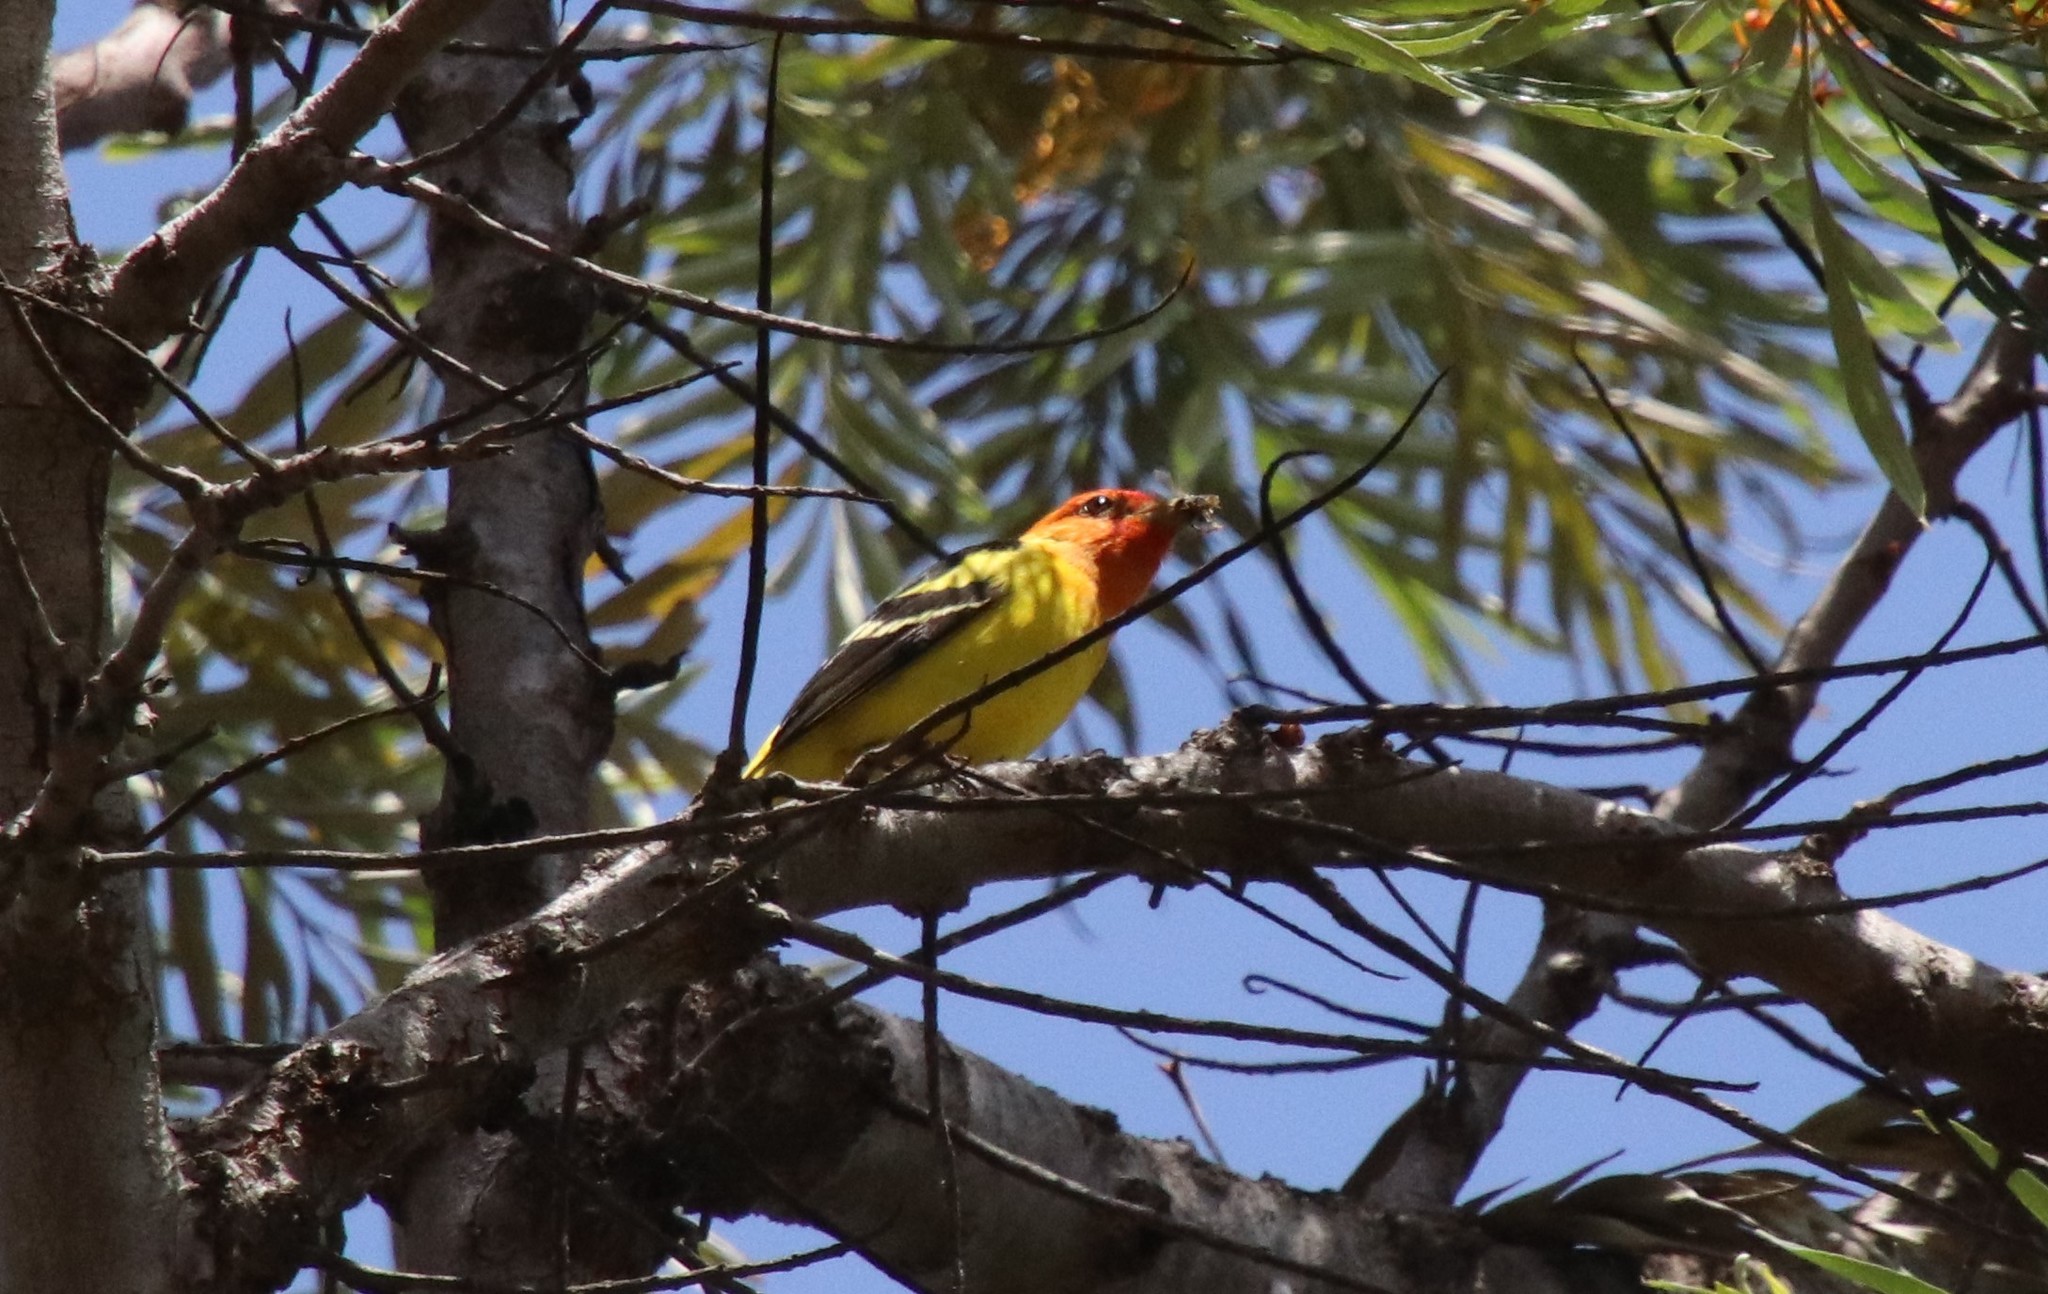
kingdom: Animalia
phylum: Chordata
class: Aves
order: Passeriformes
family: Cardinalidae
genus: Piranga
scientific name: Piranga ludoviciana
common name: Western tanager
